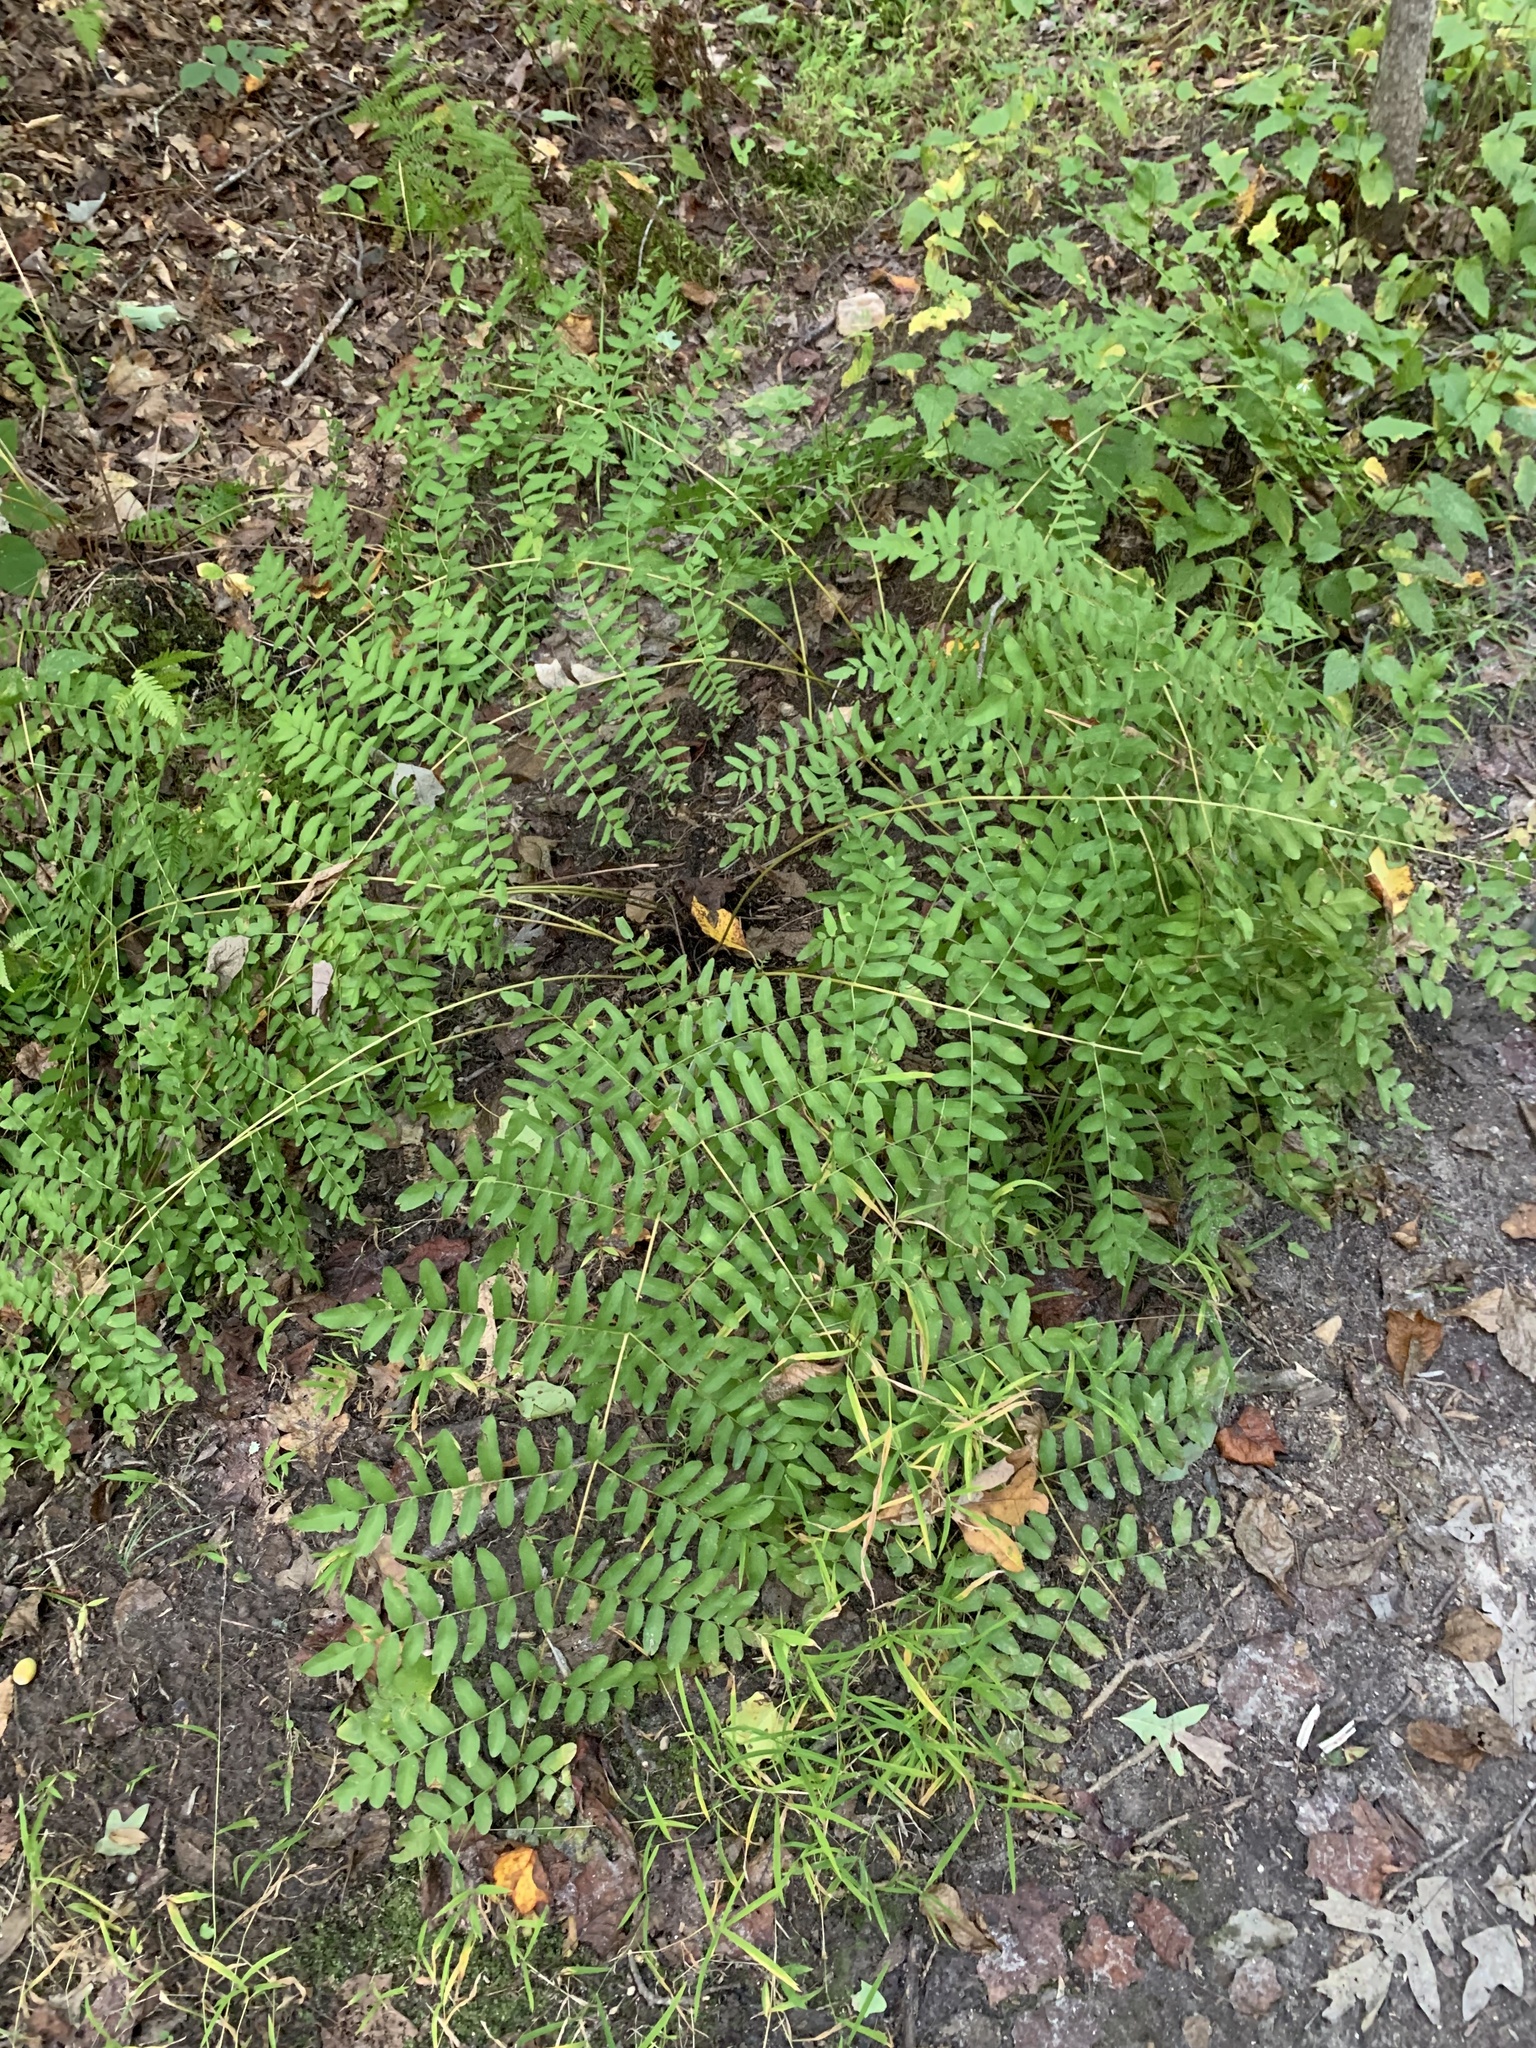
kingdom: Plantae
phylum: Tracheophyta
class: Polypodiopsida
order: Osmundales
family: Osmundaceae
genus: Osmunda
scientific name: Osmunda spectabilis
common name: American royal fern
